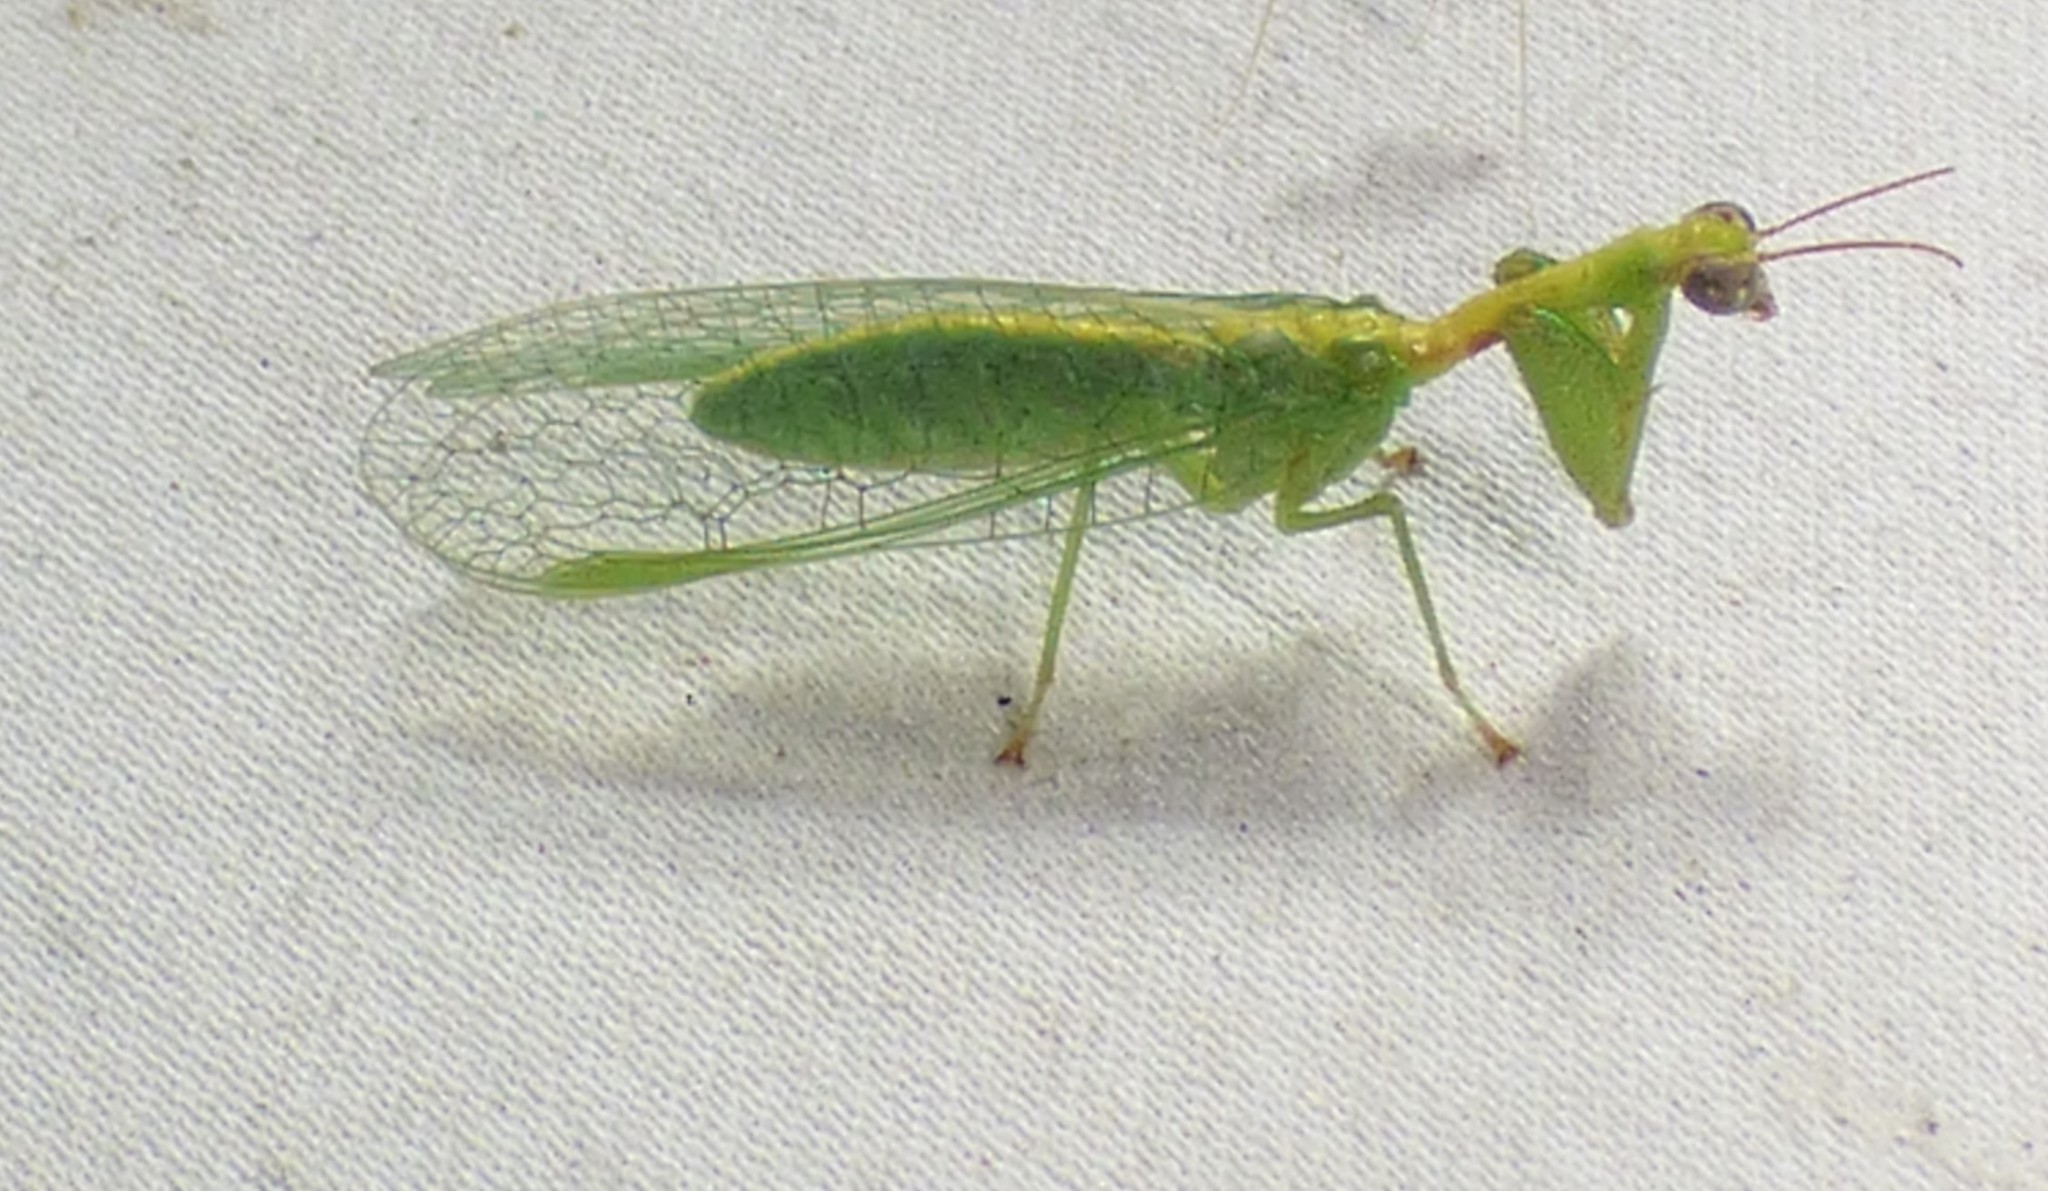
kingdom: Animalia
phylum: Arthropoda
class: Insecta
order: Neuroptera
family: Mantispidae
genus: Zeugomantispa
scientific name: Zeugomantispa minuta
